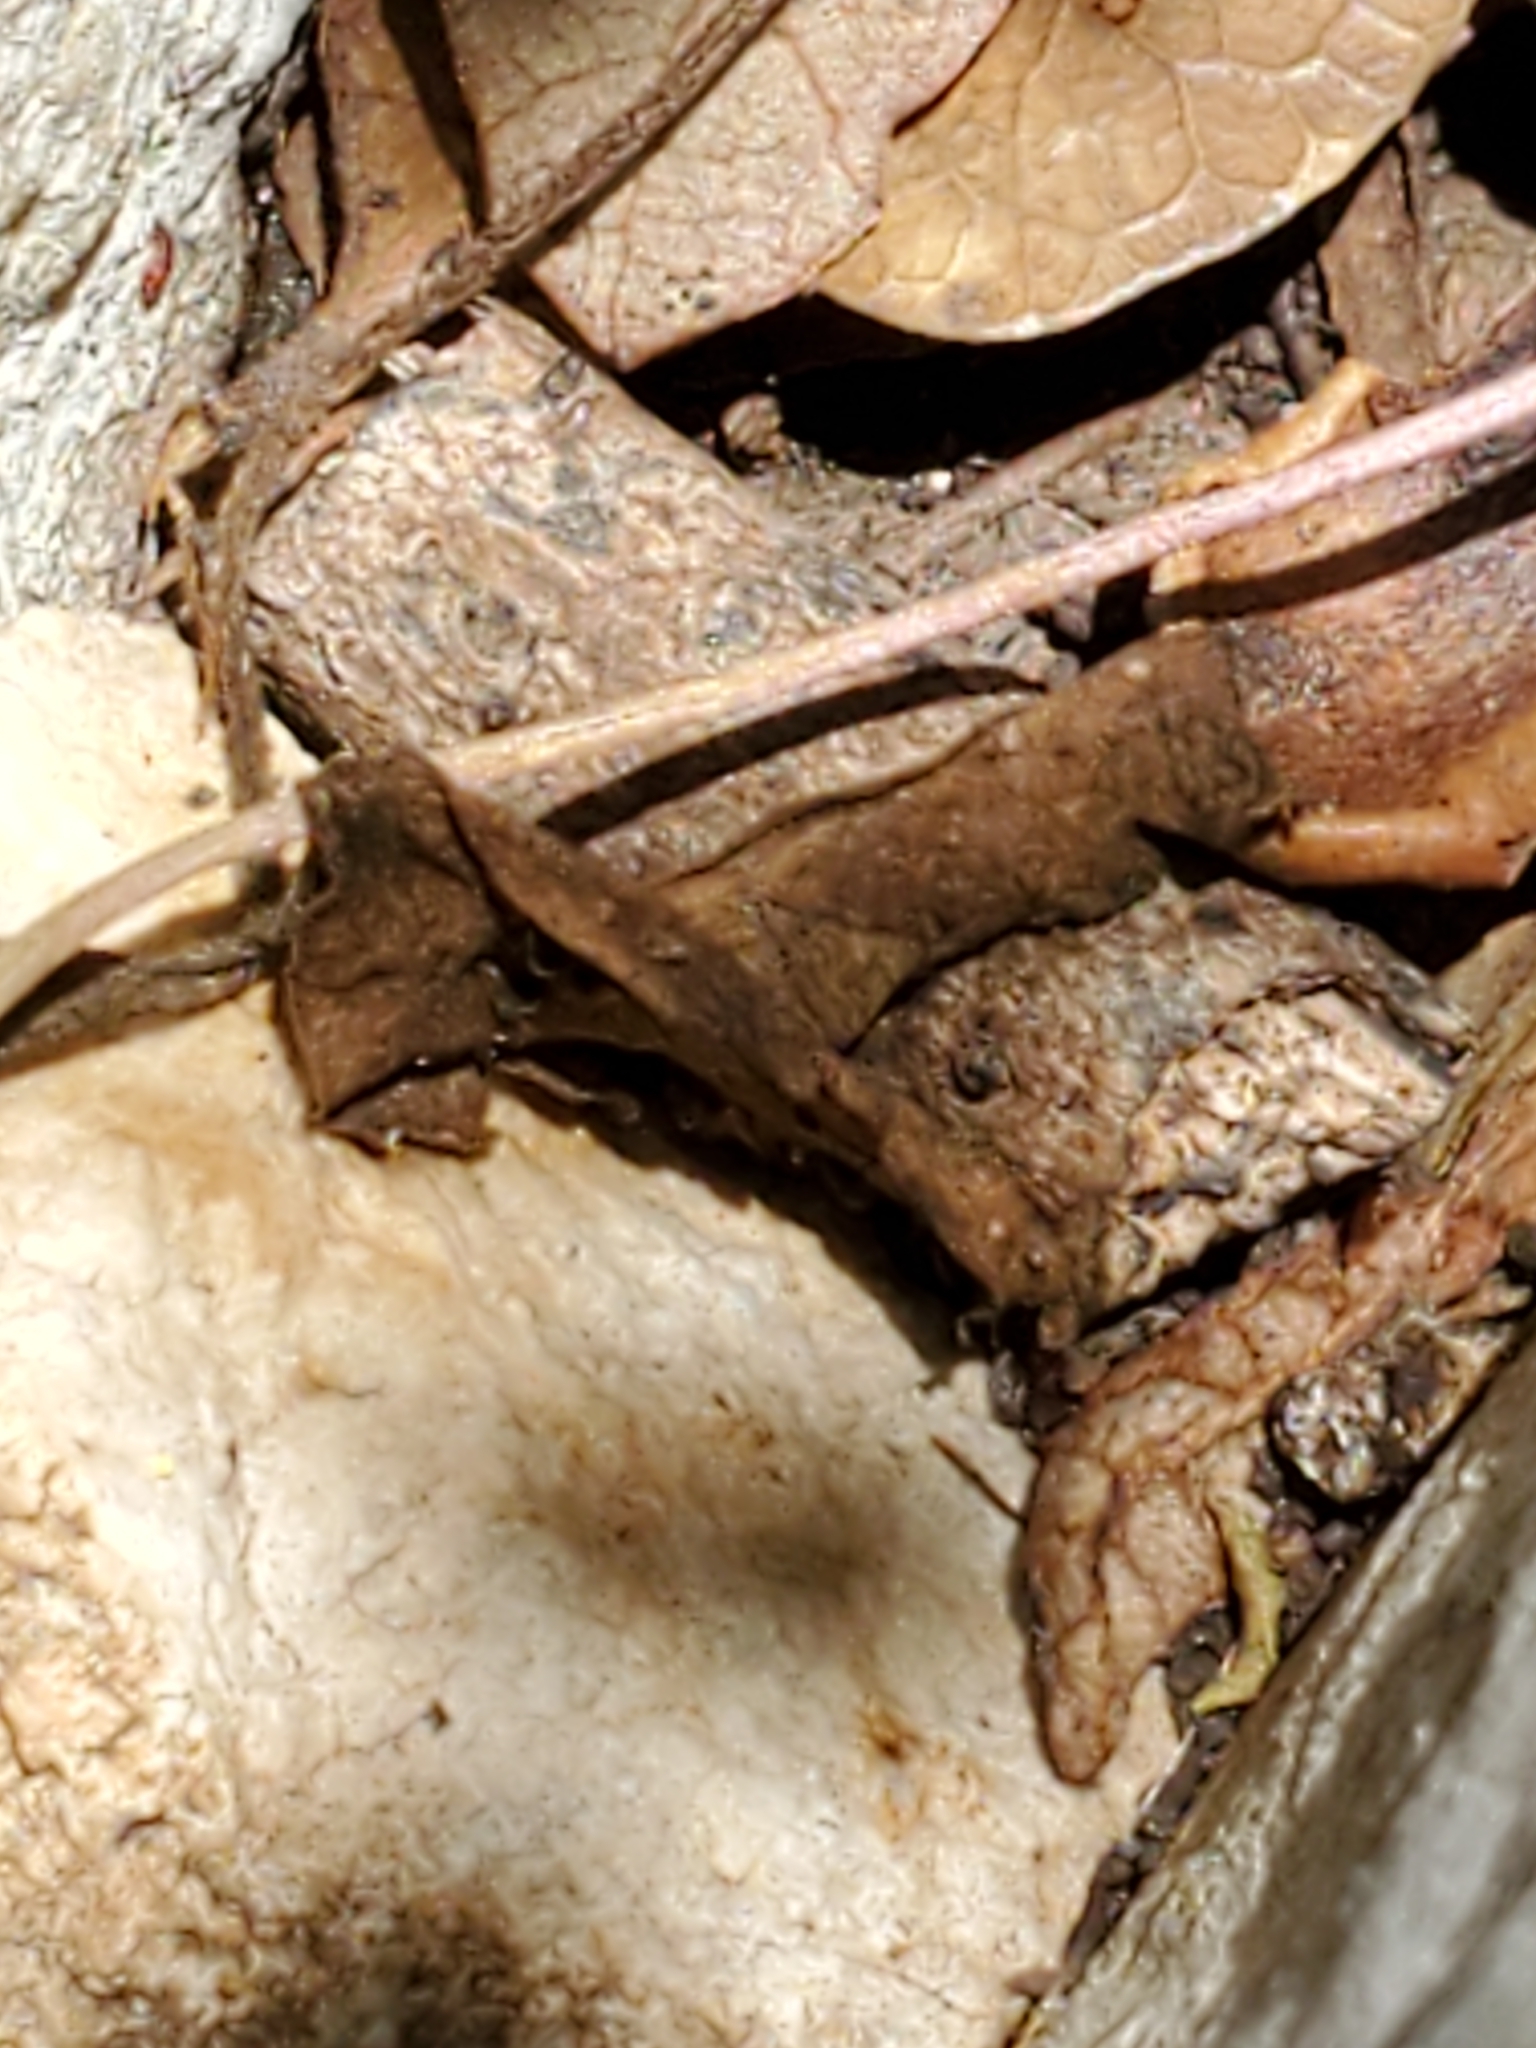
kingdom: Plantae
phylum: Tracheophyta
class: Magnoliopsida
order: Ranunculales
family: Ranunculaceae
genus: Anemone
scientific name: Anemone edwardsiana
